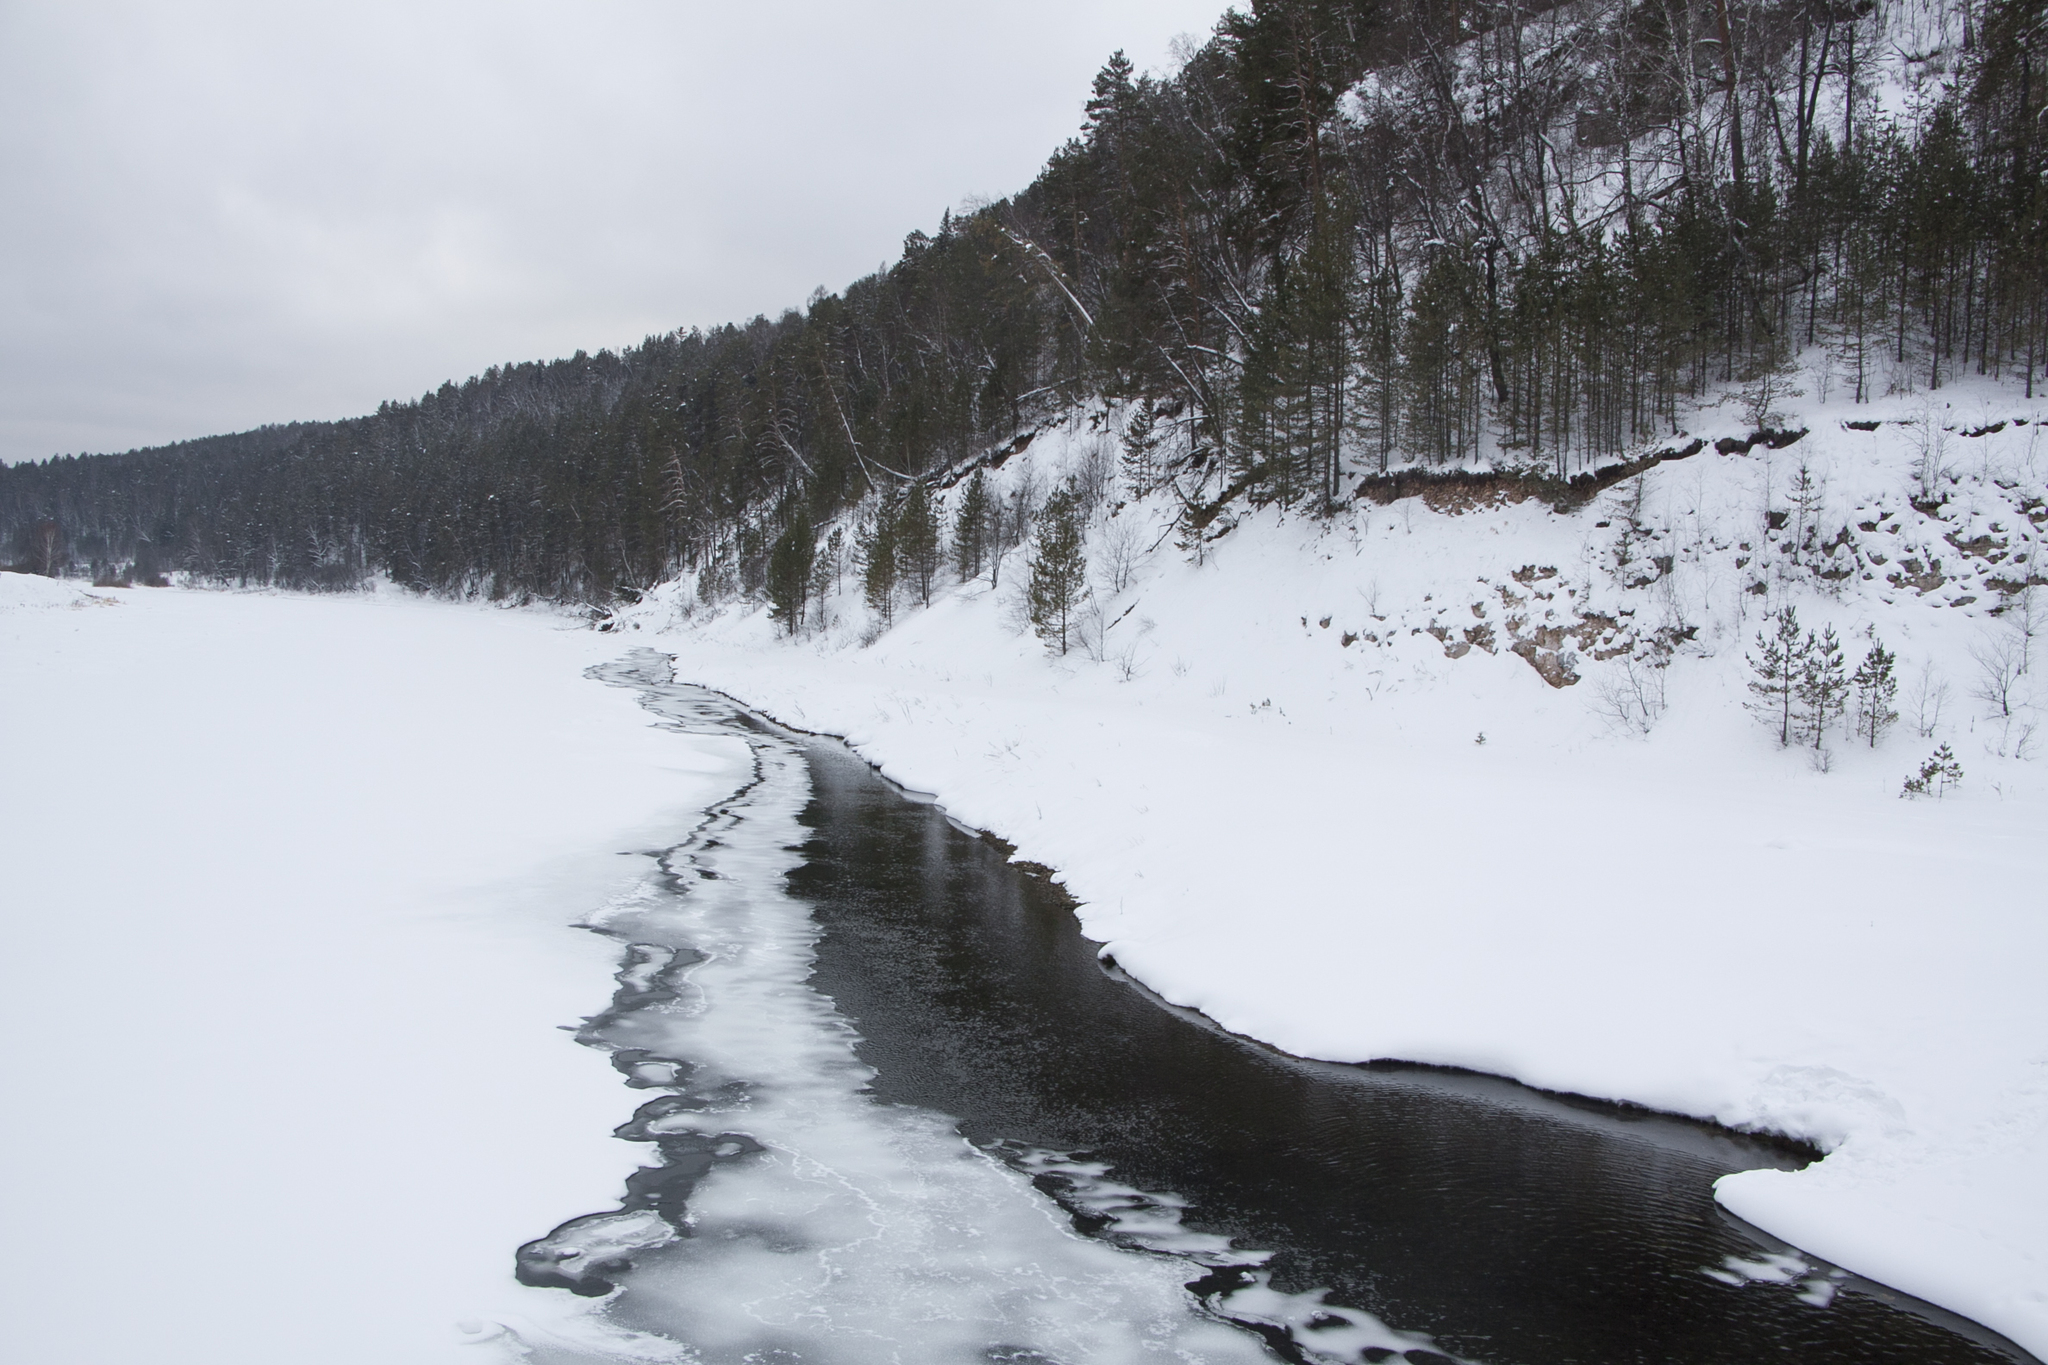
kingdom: Plantae
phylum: Tracheophyta
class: Pinopsida
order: Pinales
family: Pinaceae
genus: Pinus
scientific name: Pinus sylvestris
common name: Scots pine
